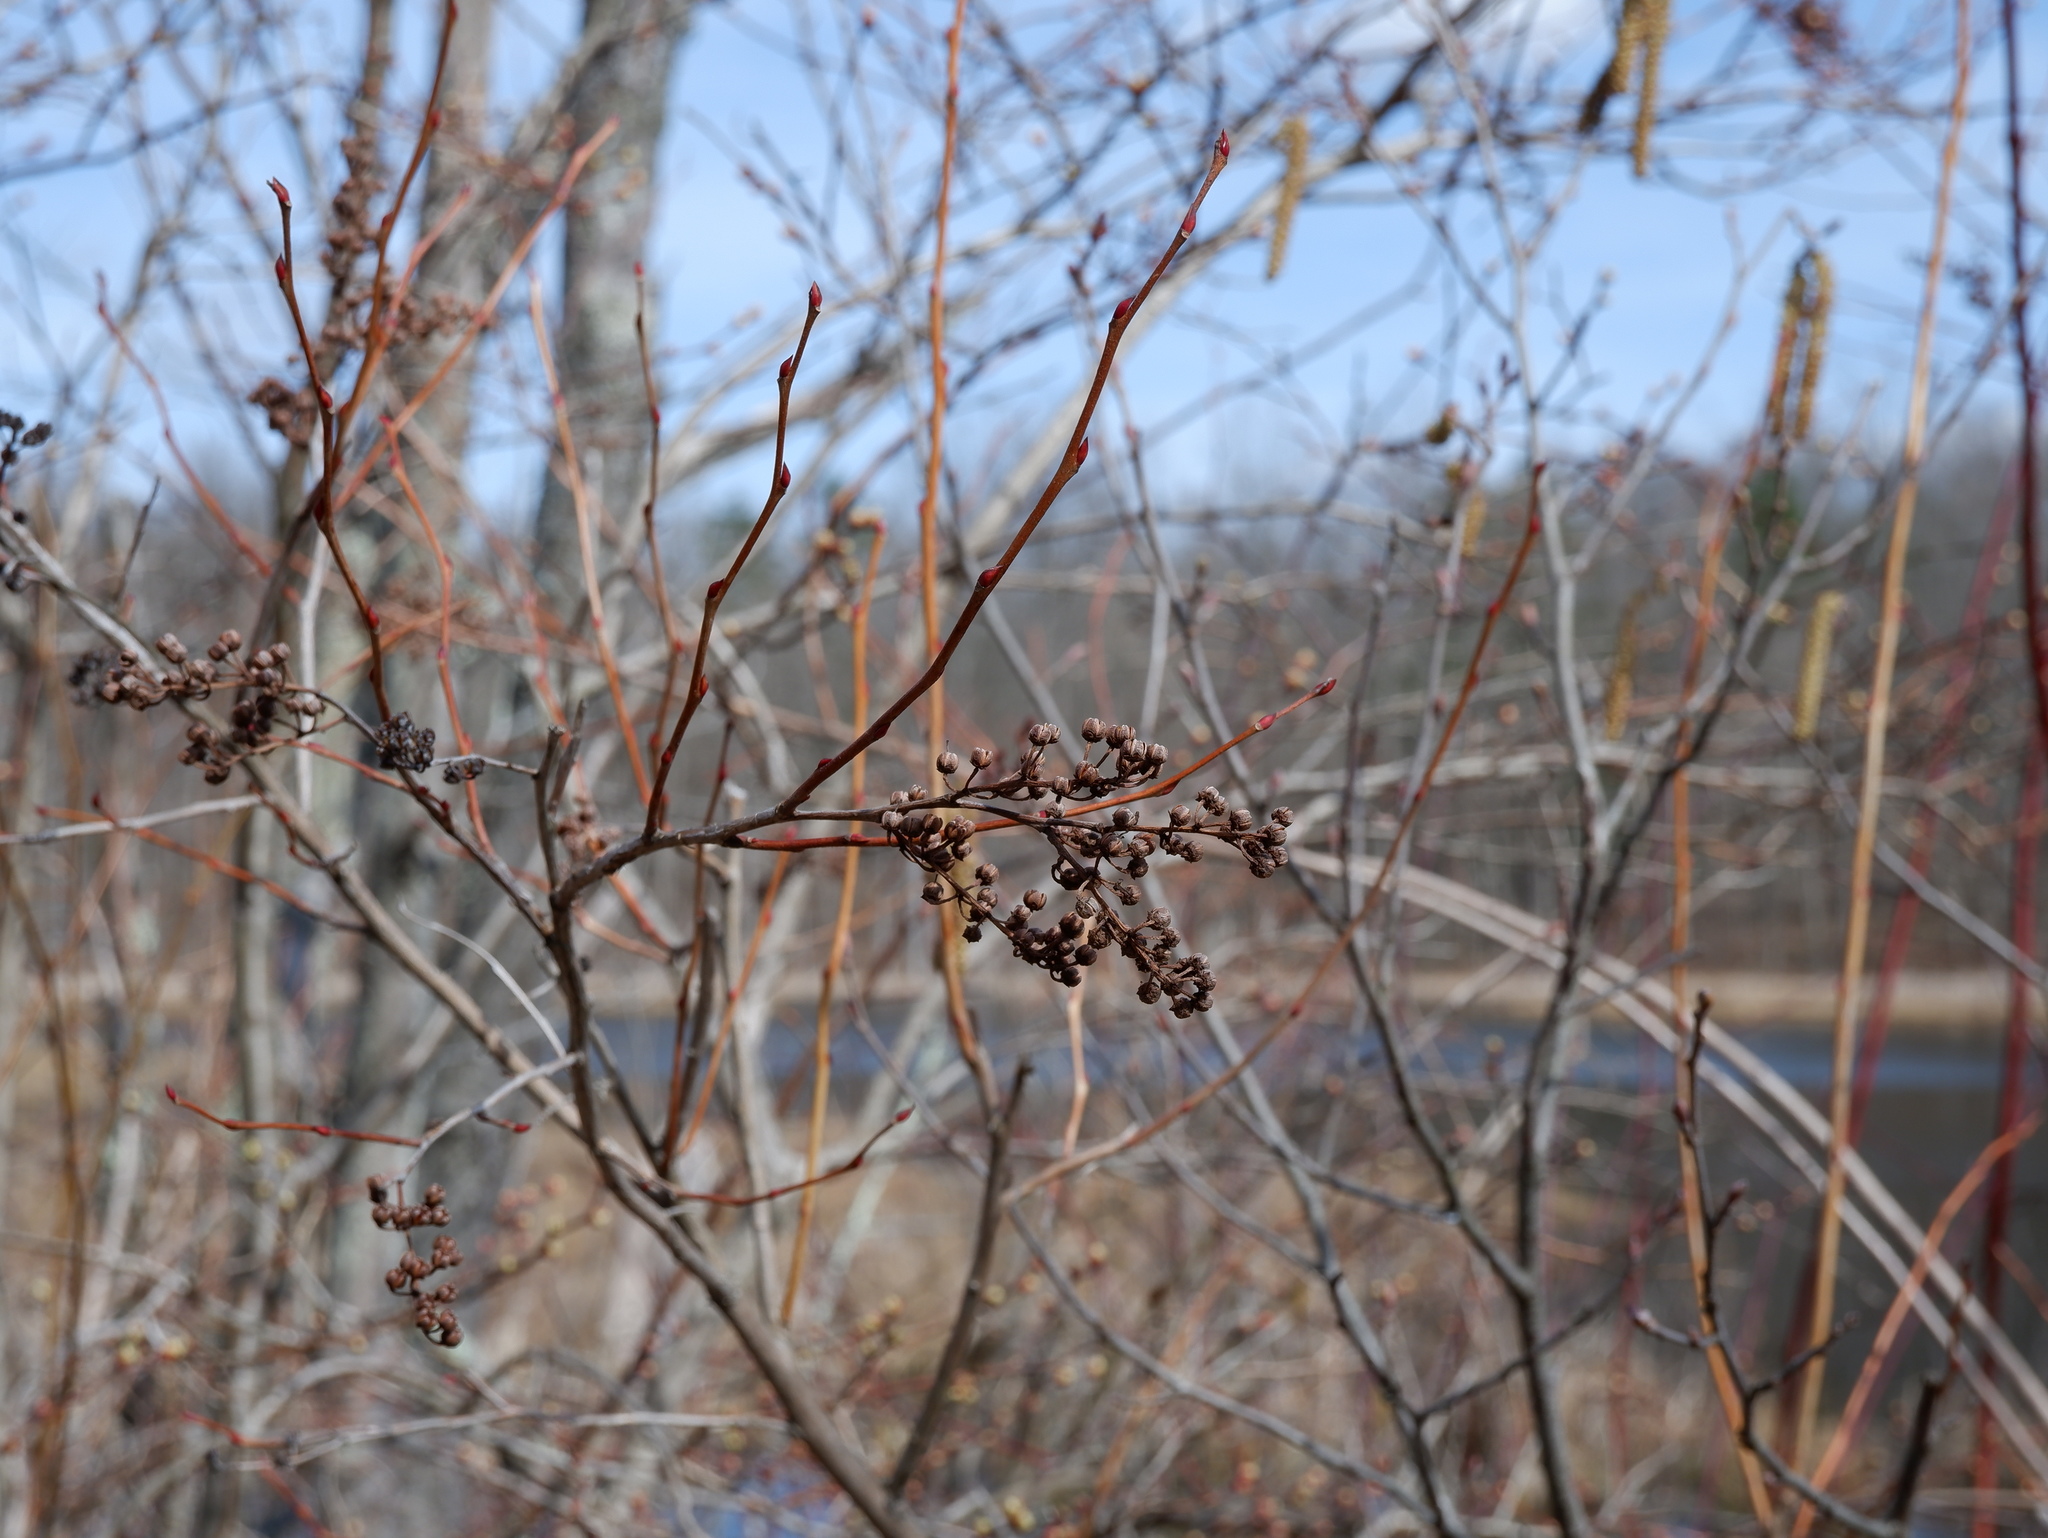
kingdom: Plantae
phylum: Tracheophyta
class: Magnoliopsida
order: Ericales
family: Ericaceae
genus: Lyonia
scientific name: Lyonia ligustrina
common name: Maleberry
